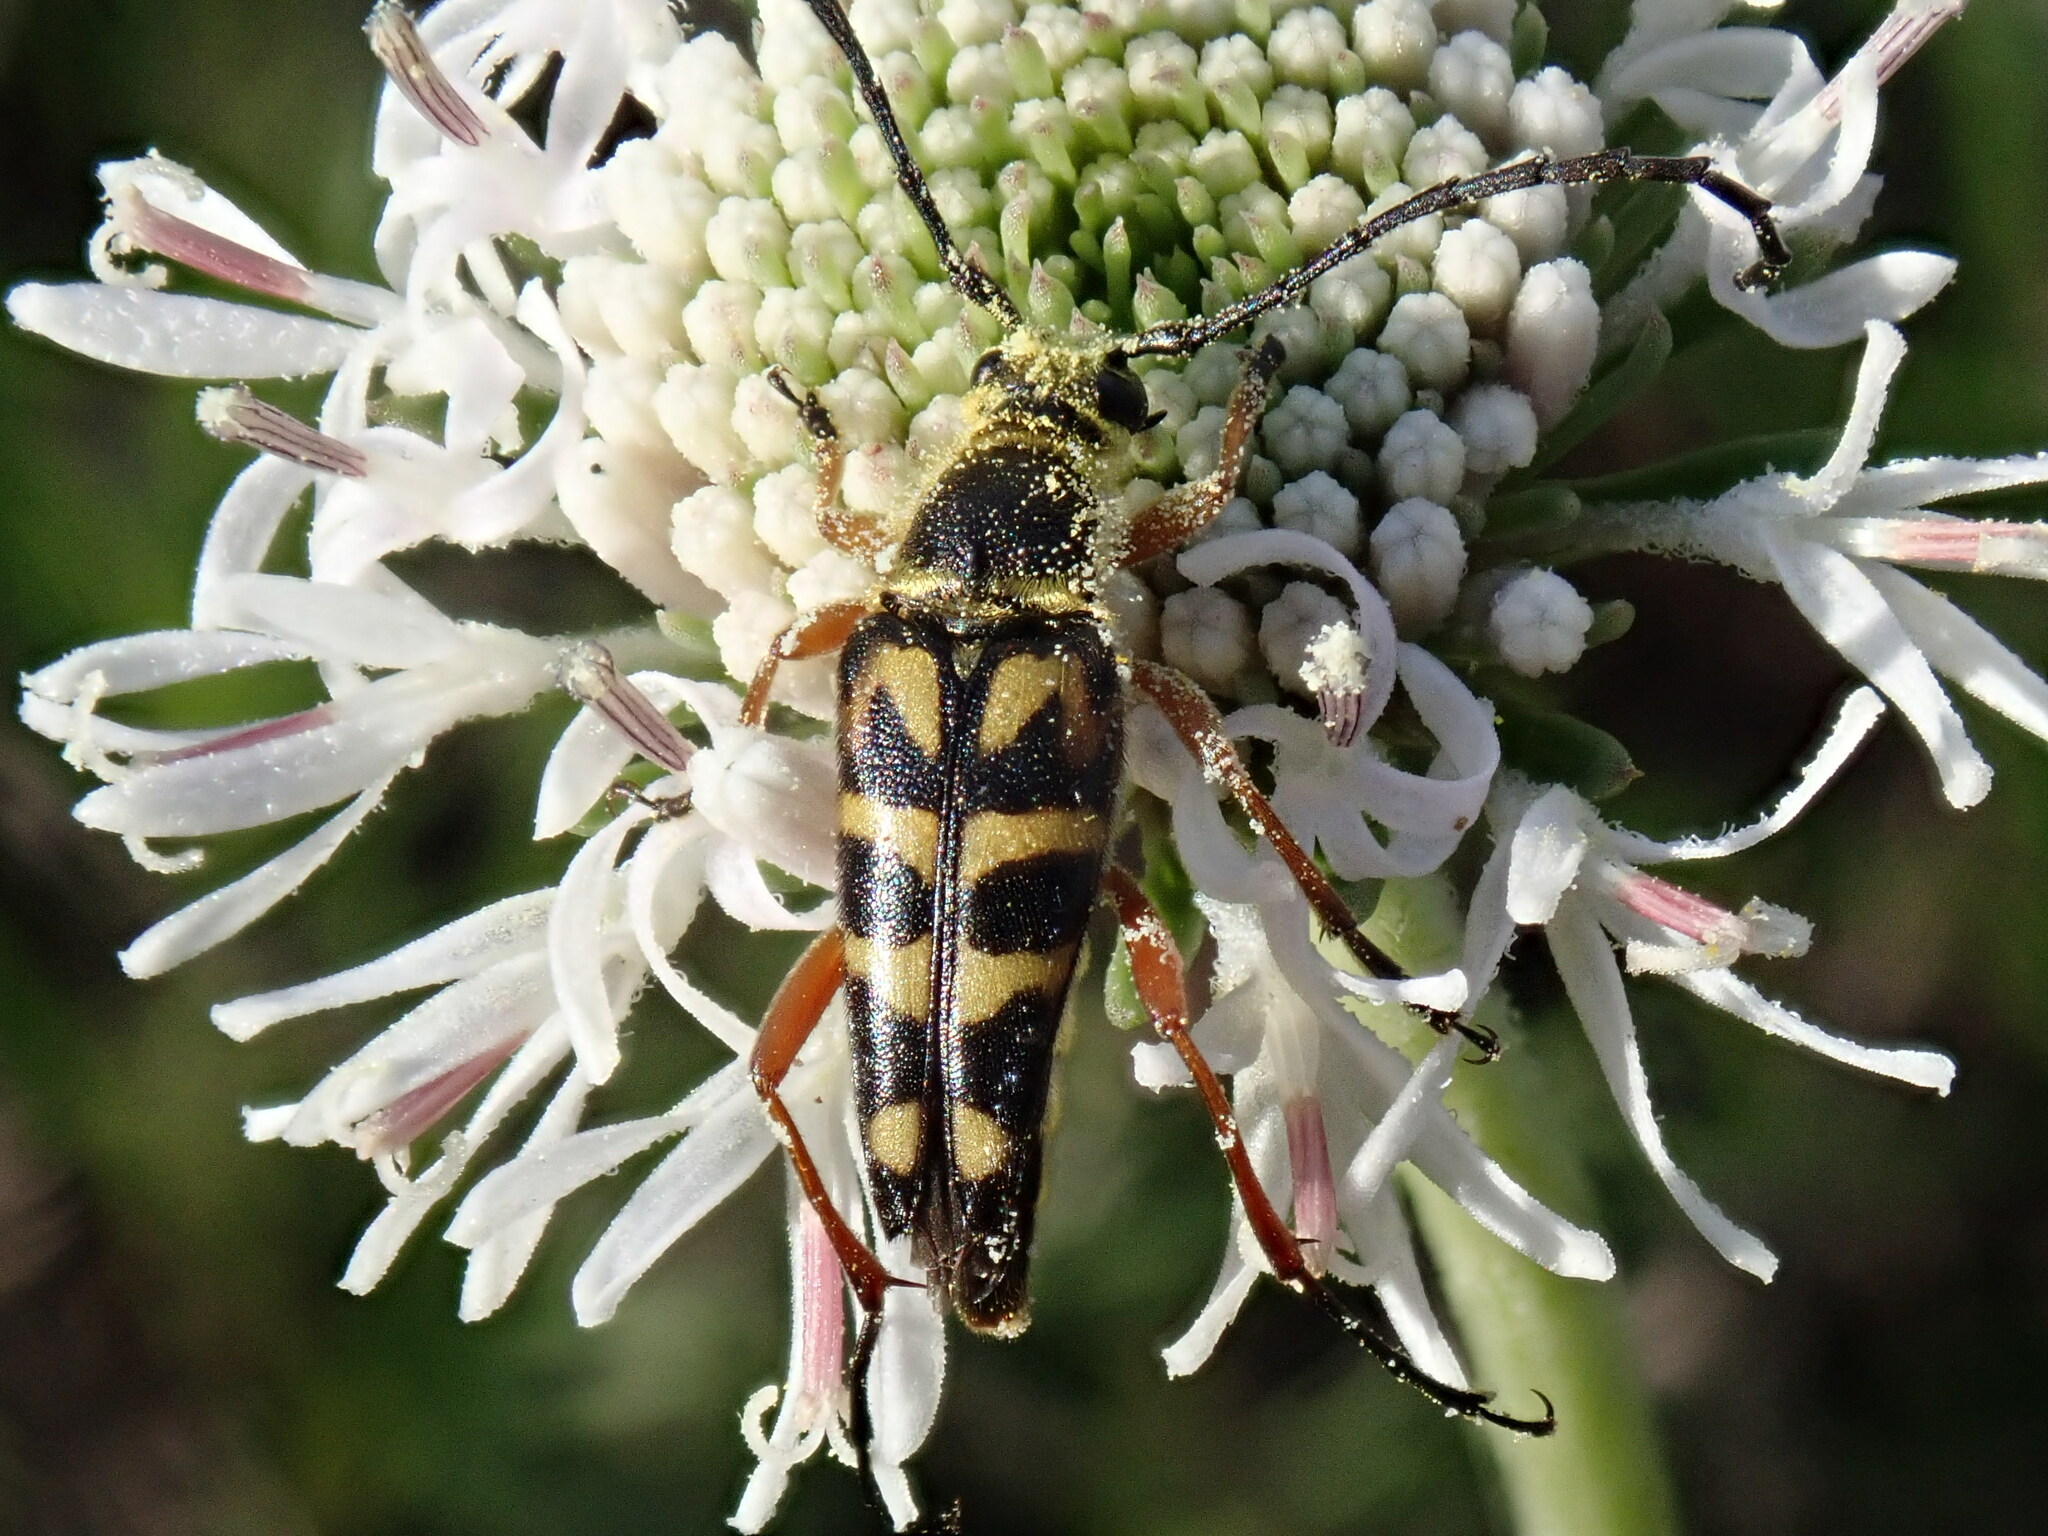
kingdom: Animalia
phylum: Arthropoda
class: Insecta
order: Coleoptera
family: Cerambycidae
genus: Typocerus
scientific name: Typocerus zebra
